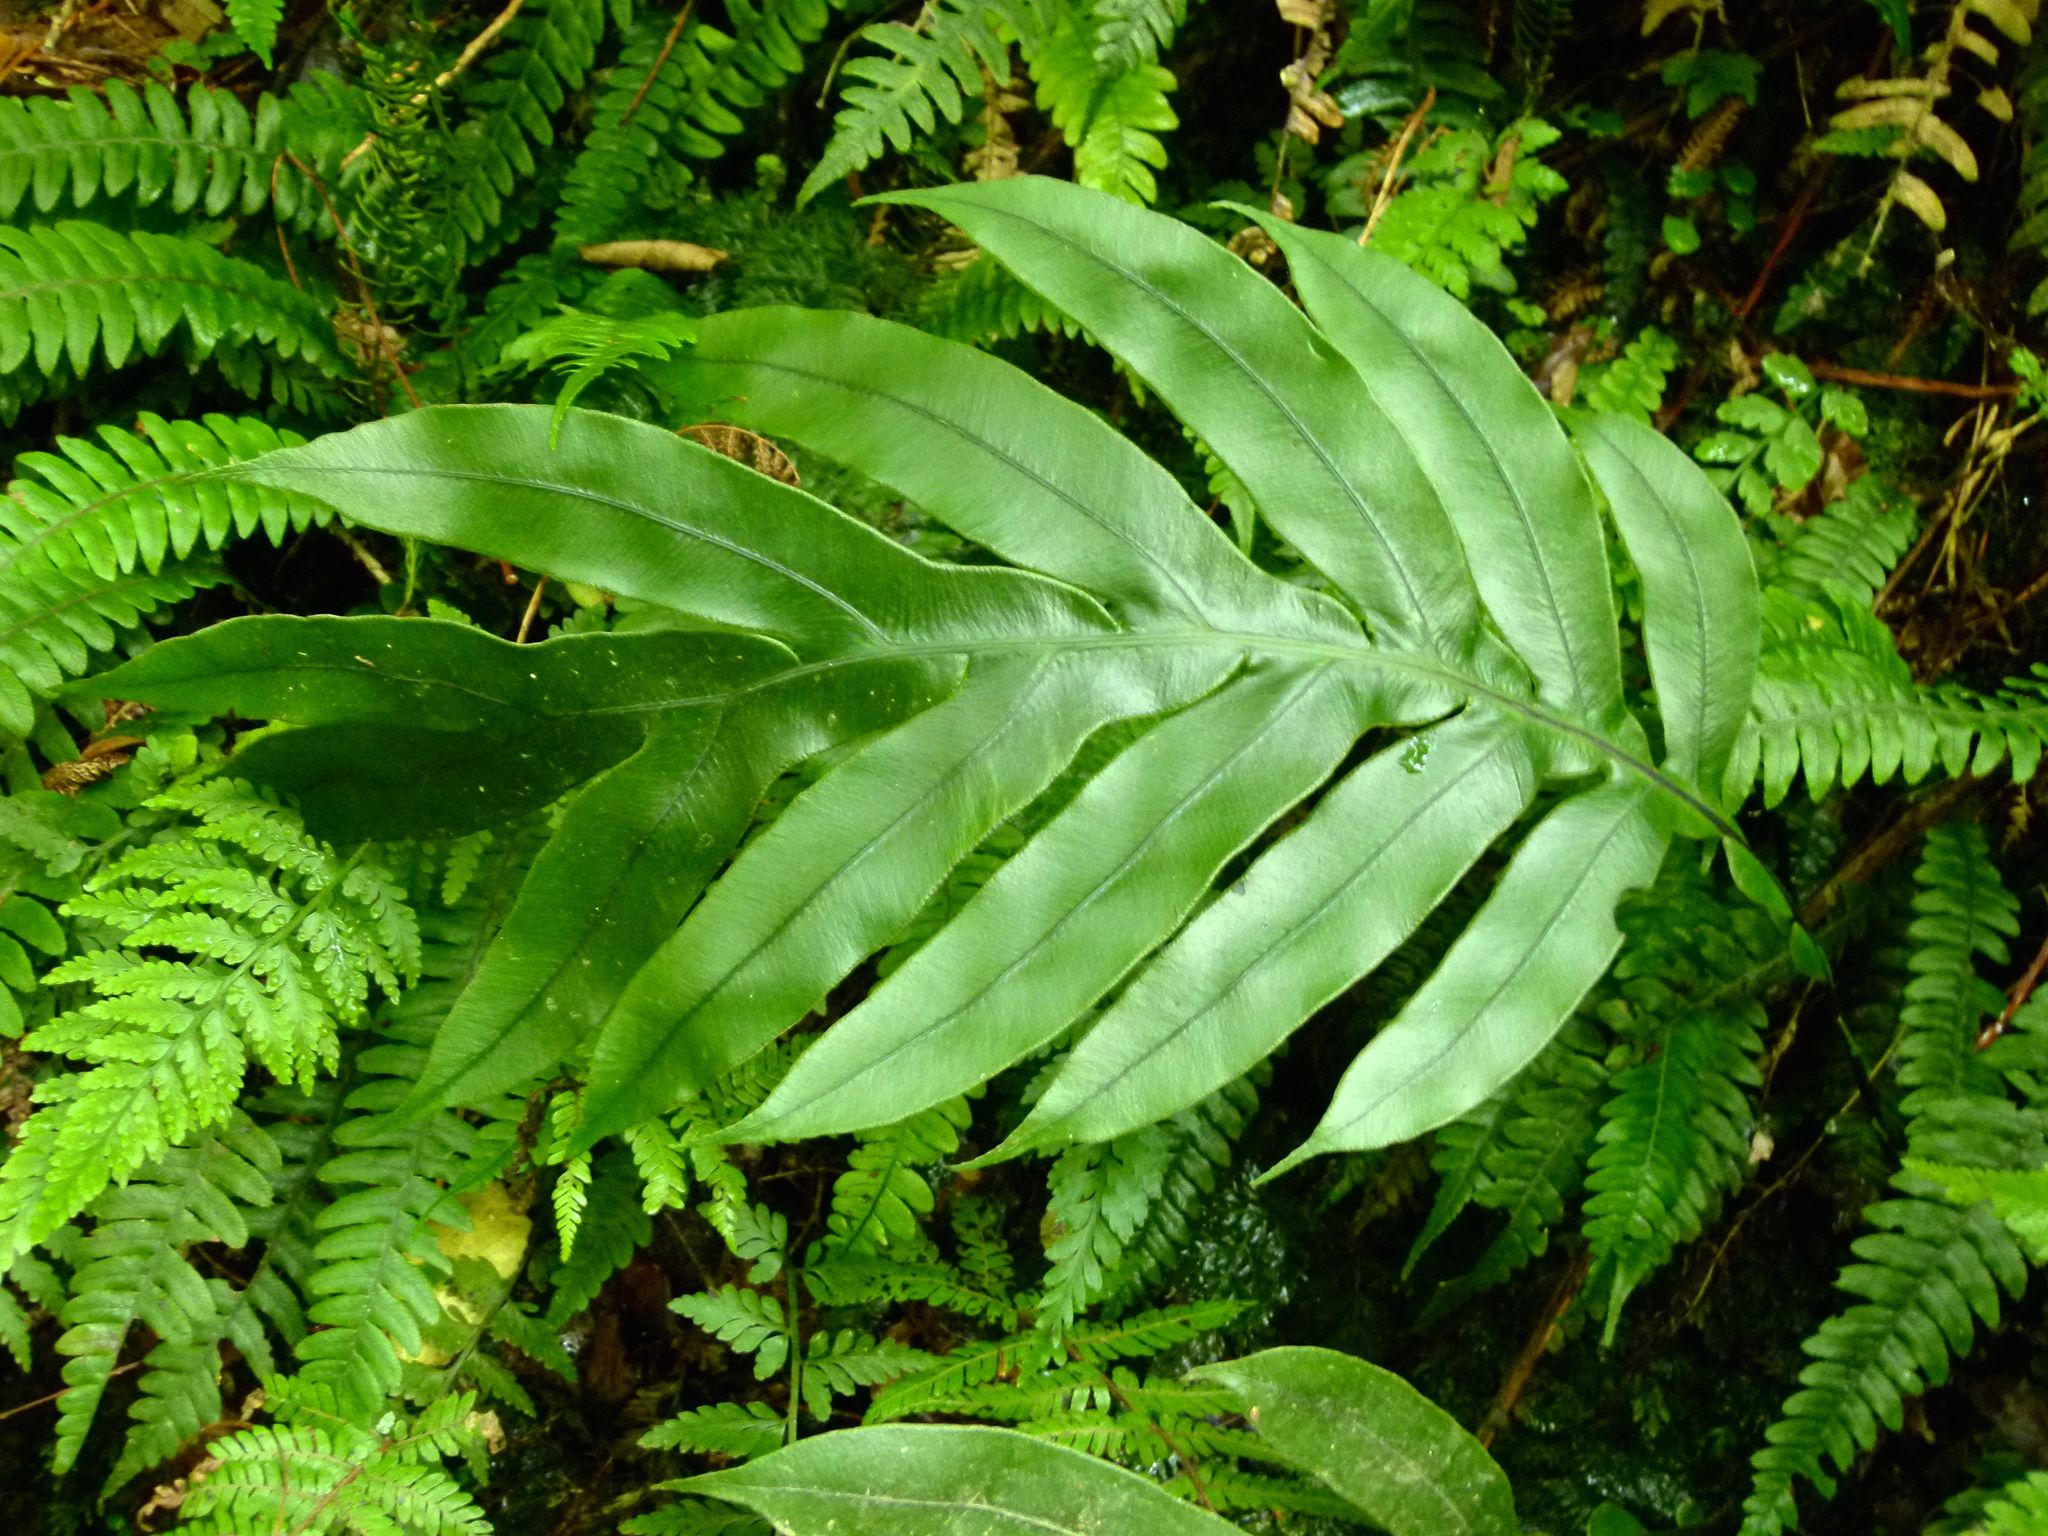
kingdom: Plantae
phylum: Tracheophyta
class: Polypodiopsida
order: Polypodiales
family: Blechnaceae
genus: Austroblechnum
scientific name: Austroblechnum colensoi
